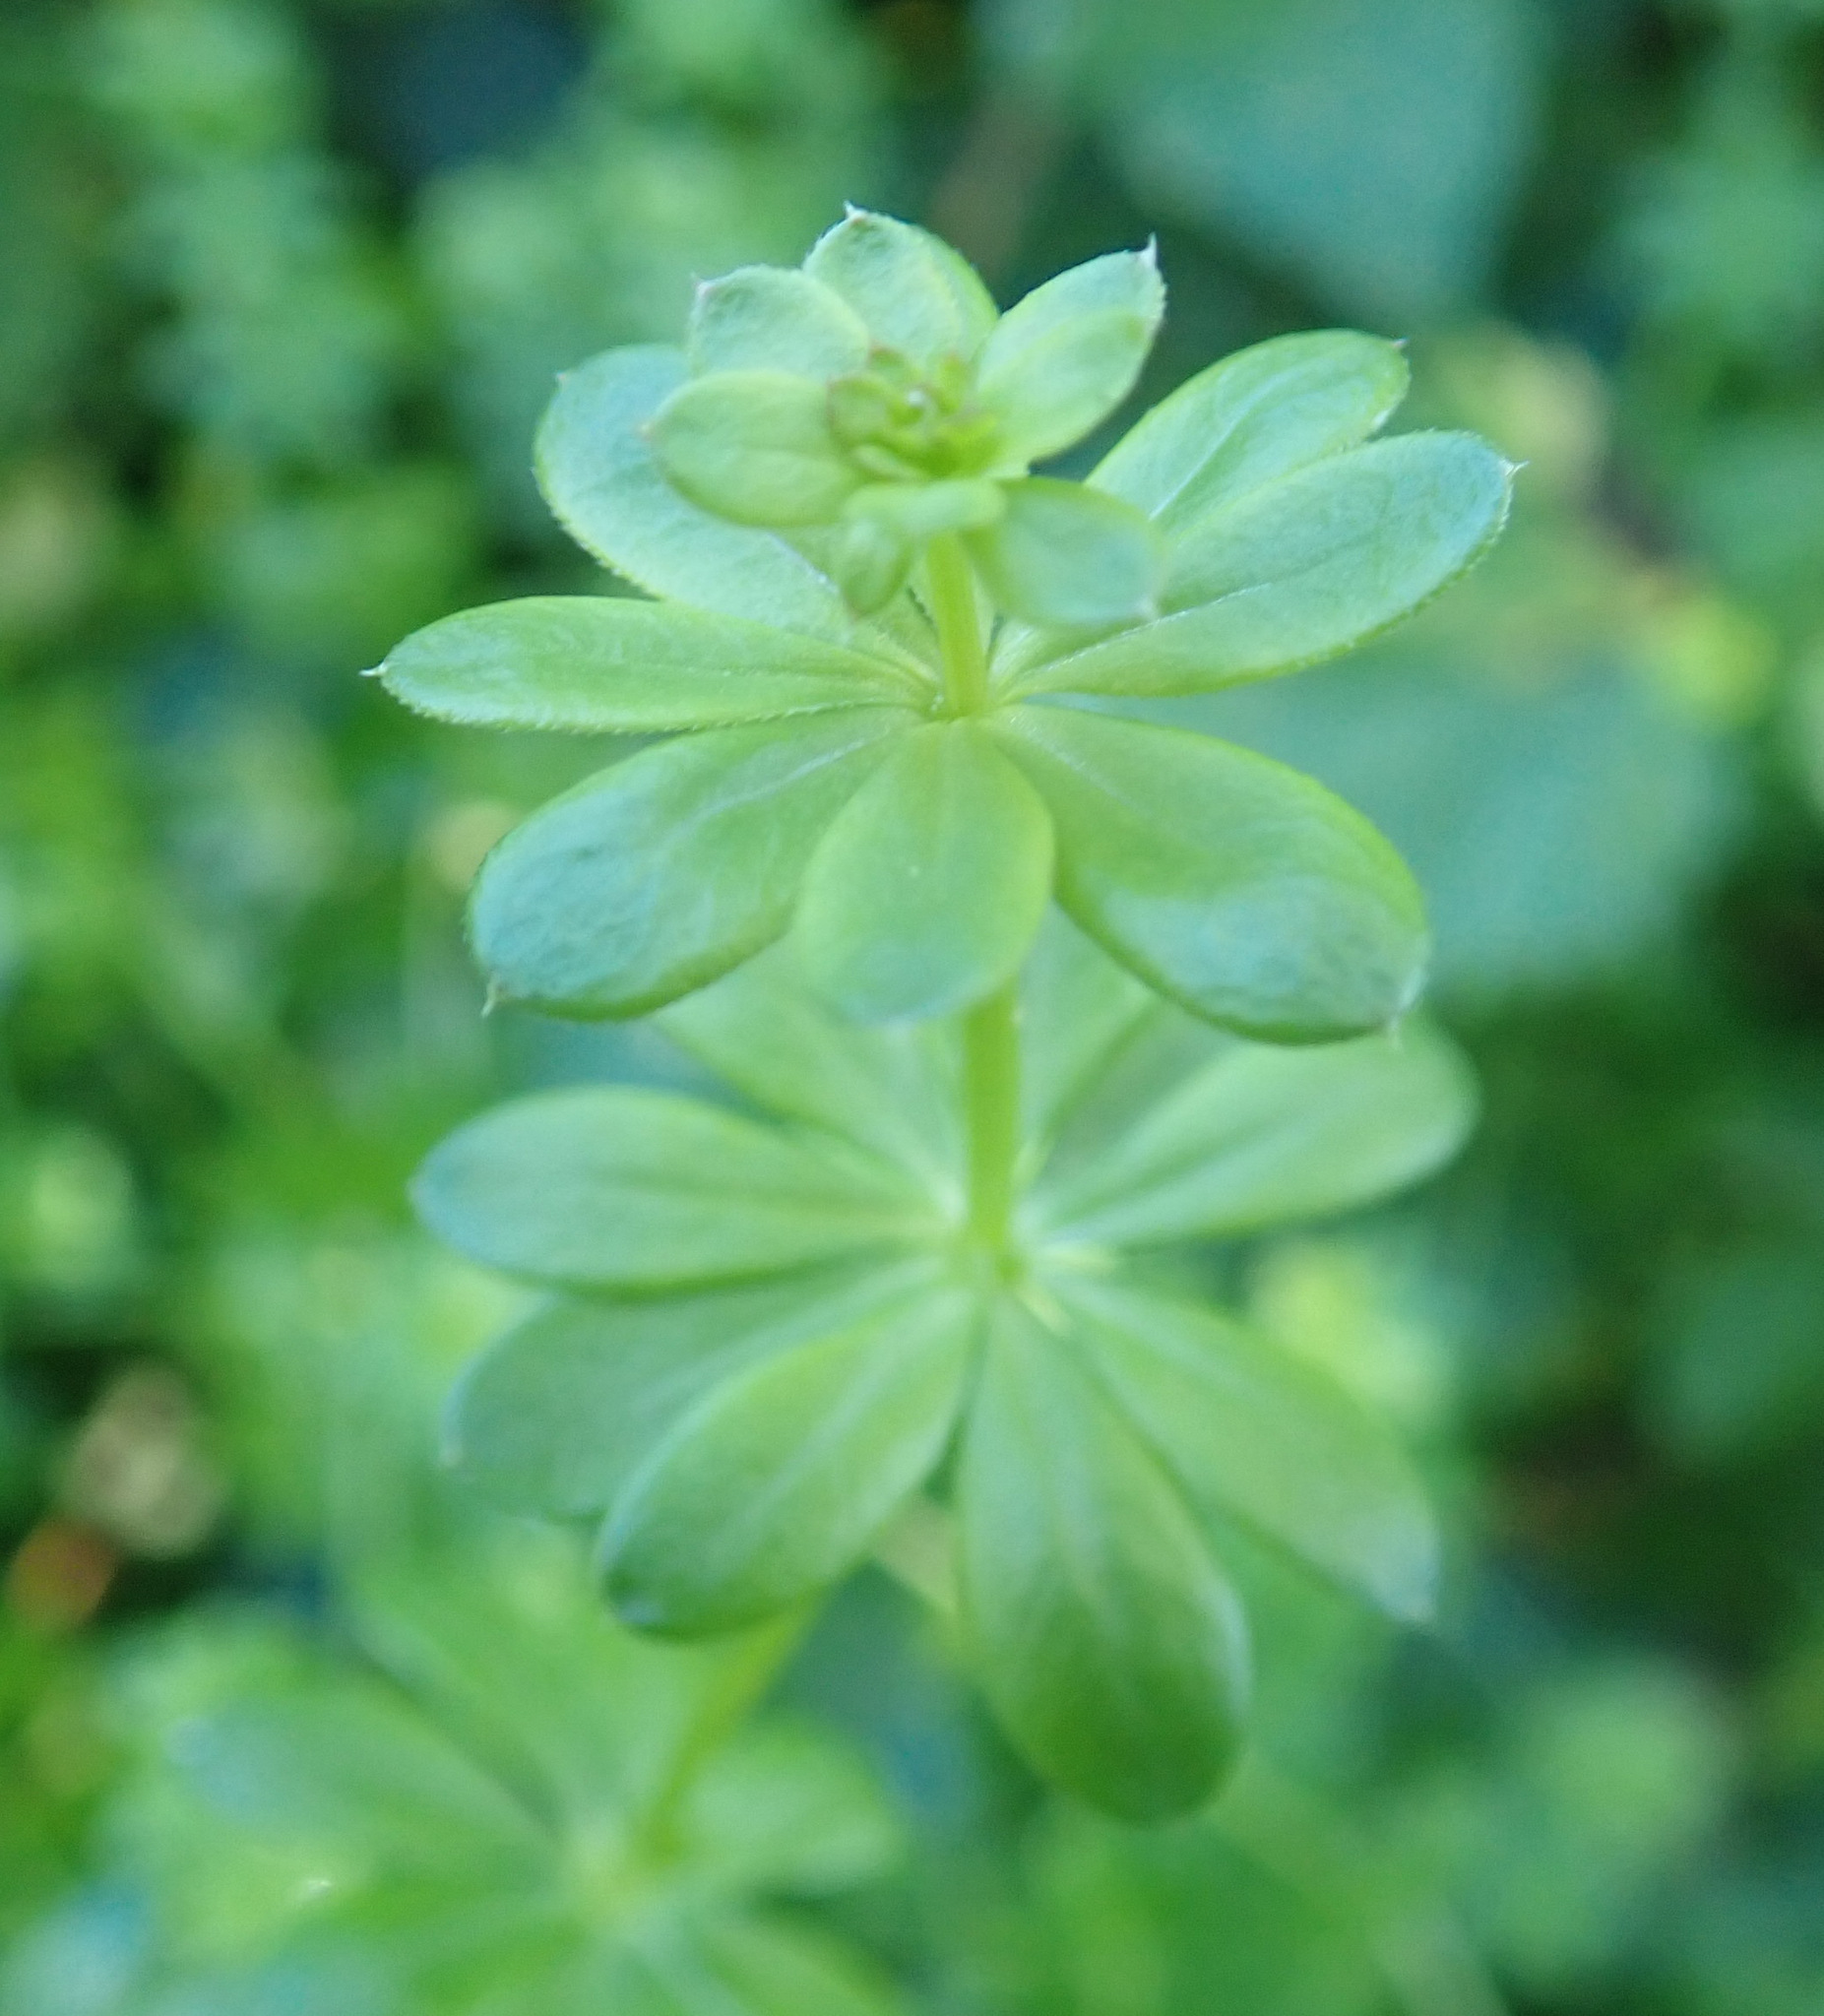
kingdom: Plantae
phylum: Tracheophyta
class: Magnoliopsida
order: Gentianales
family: Rubiaceae
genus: Galium
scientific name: Galium mollugo
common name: Hedge bedstraw
